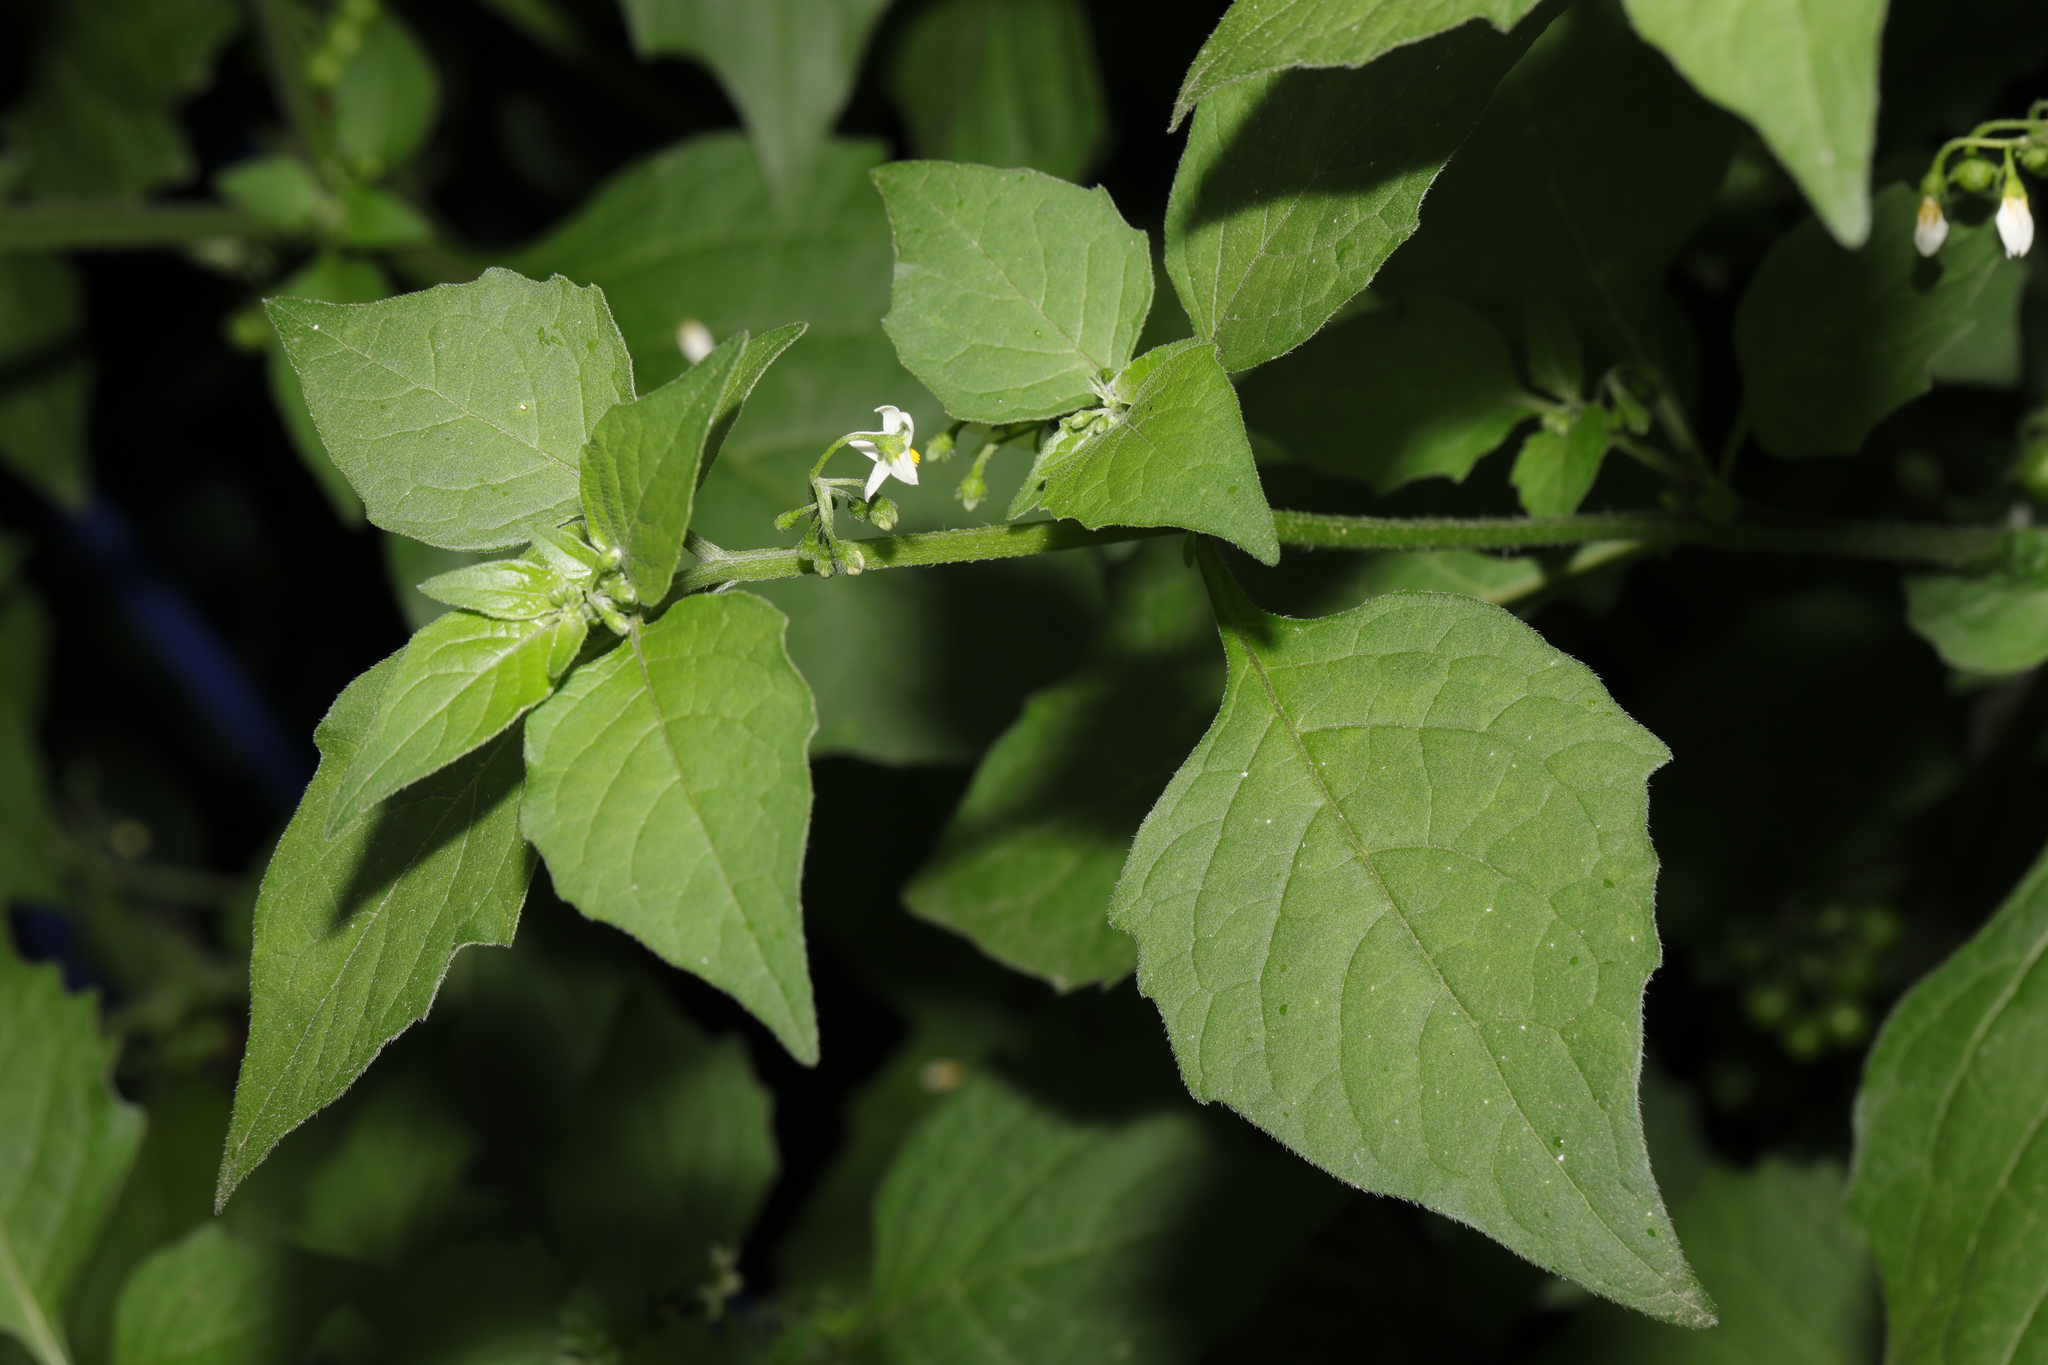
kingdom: Plantae
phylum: Tracheophyta
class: Magnoliopsida
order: Solanales
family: Solanaceae
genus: Solanum
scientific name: Solanum nigrum
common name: Black nightshade
